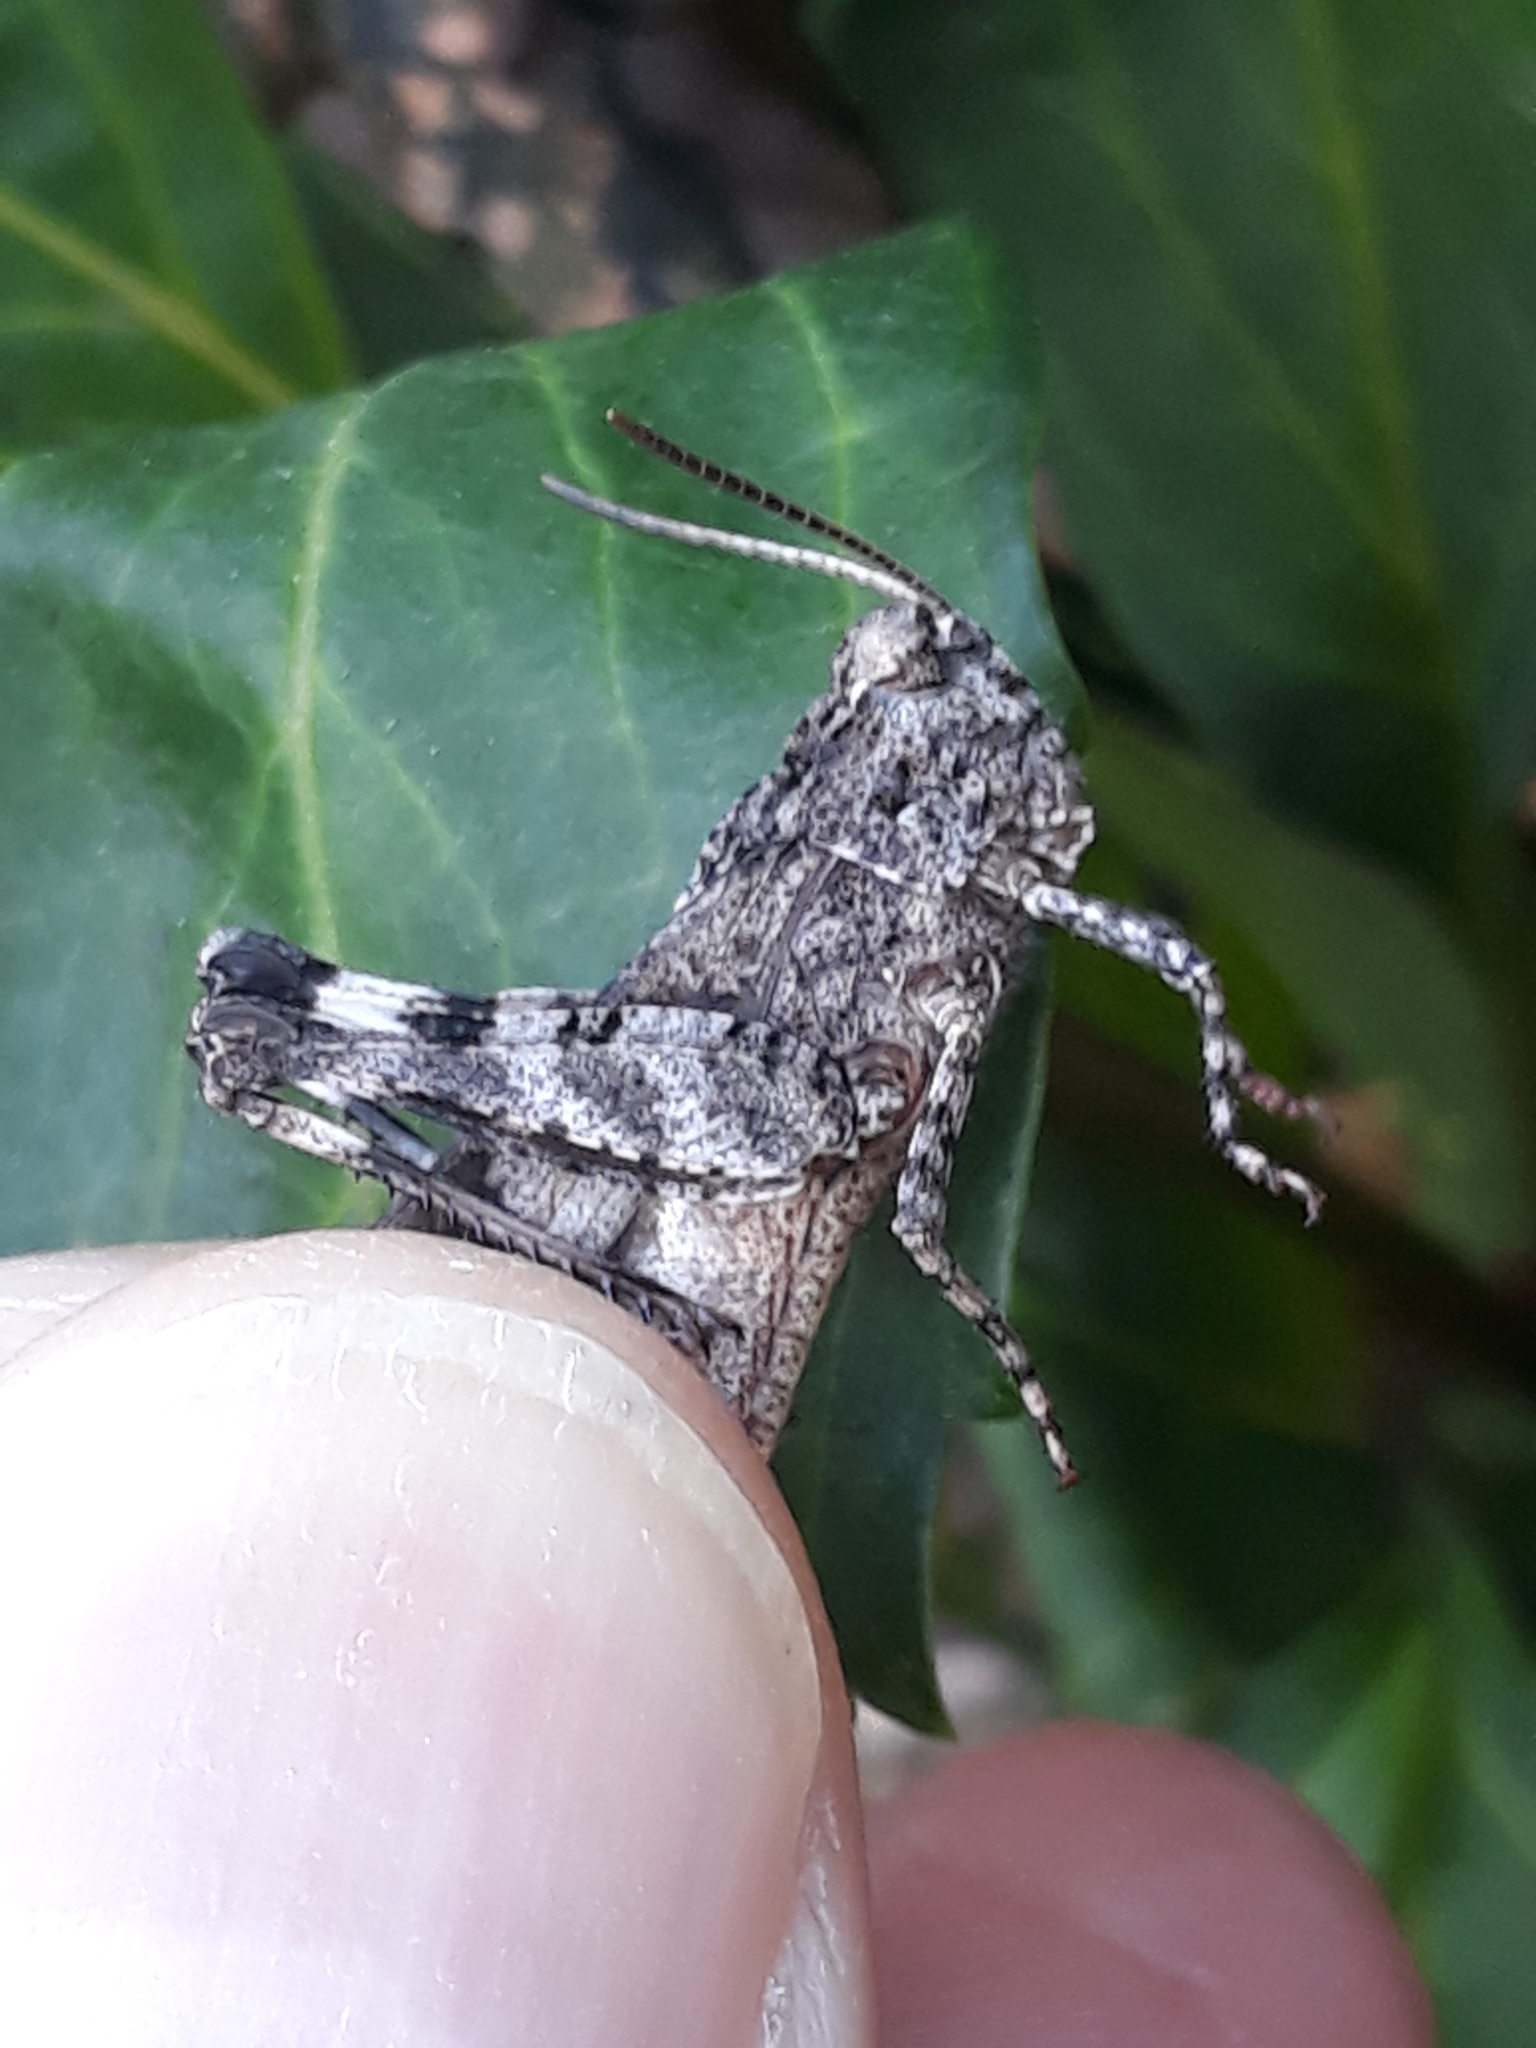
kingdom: Animalia
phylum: Arthropoda
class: Insecta
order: Orthoptera
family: Acrididae
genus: Oedipoda
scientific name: Oedipoda caerulescens
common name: Blue-winged grasshopper
